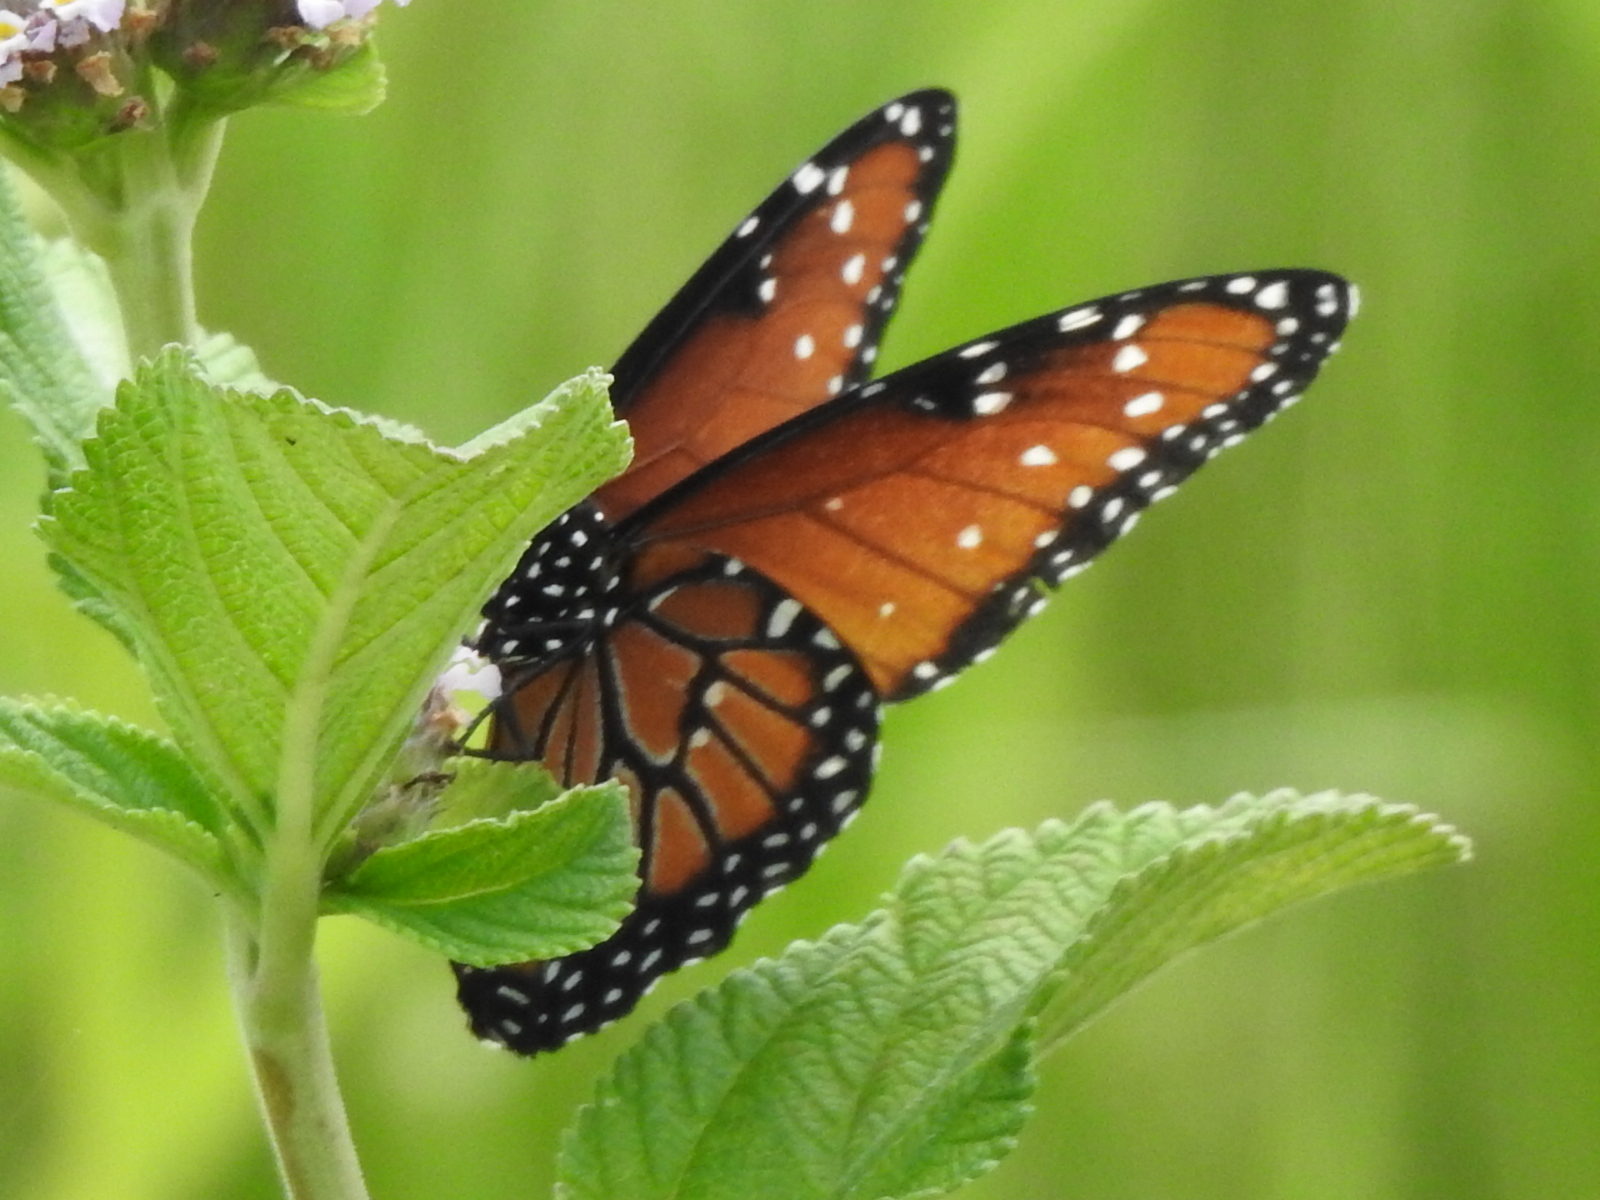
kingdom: Animalia
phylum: Arthropoda
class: Insecta
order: Lepidoptera
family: Nymphalidae
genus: Danaus
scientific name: Danaus gilippus
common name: Queen
